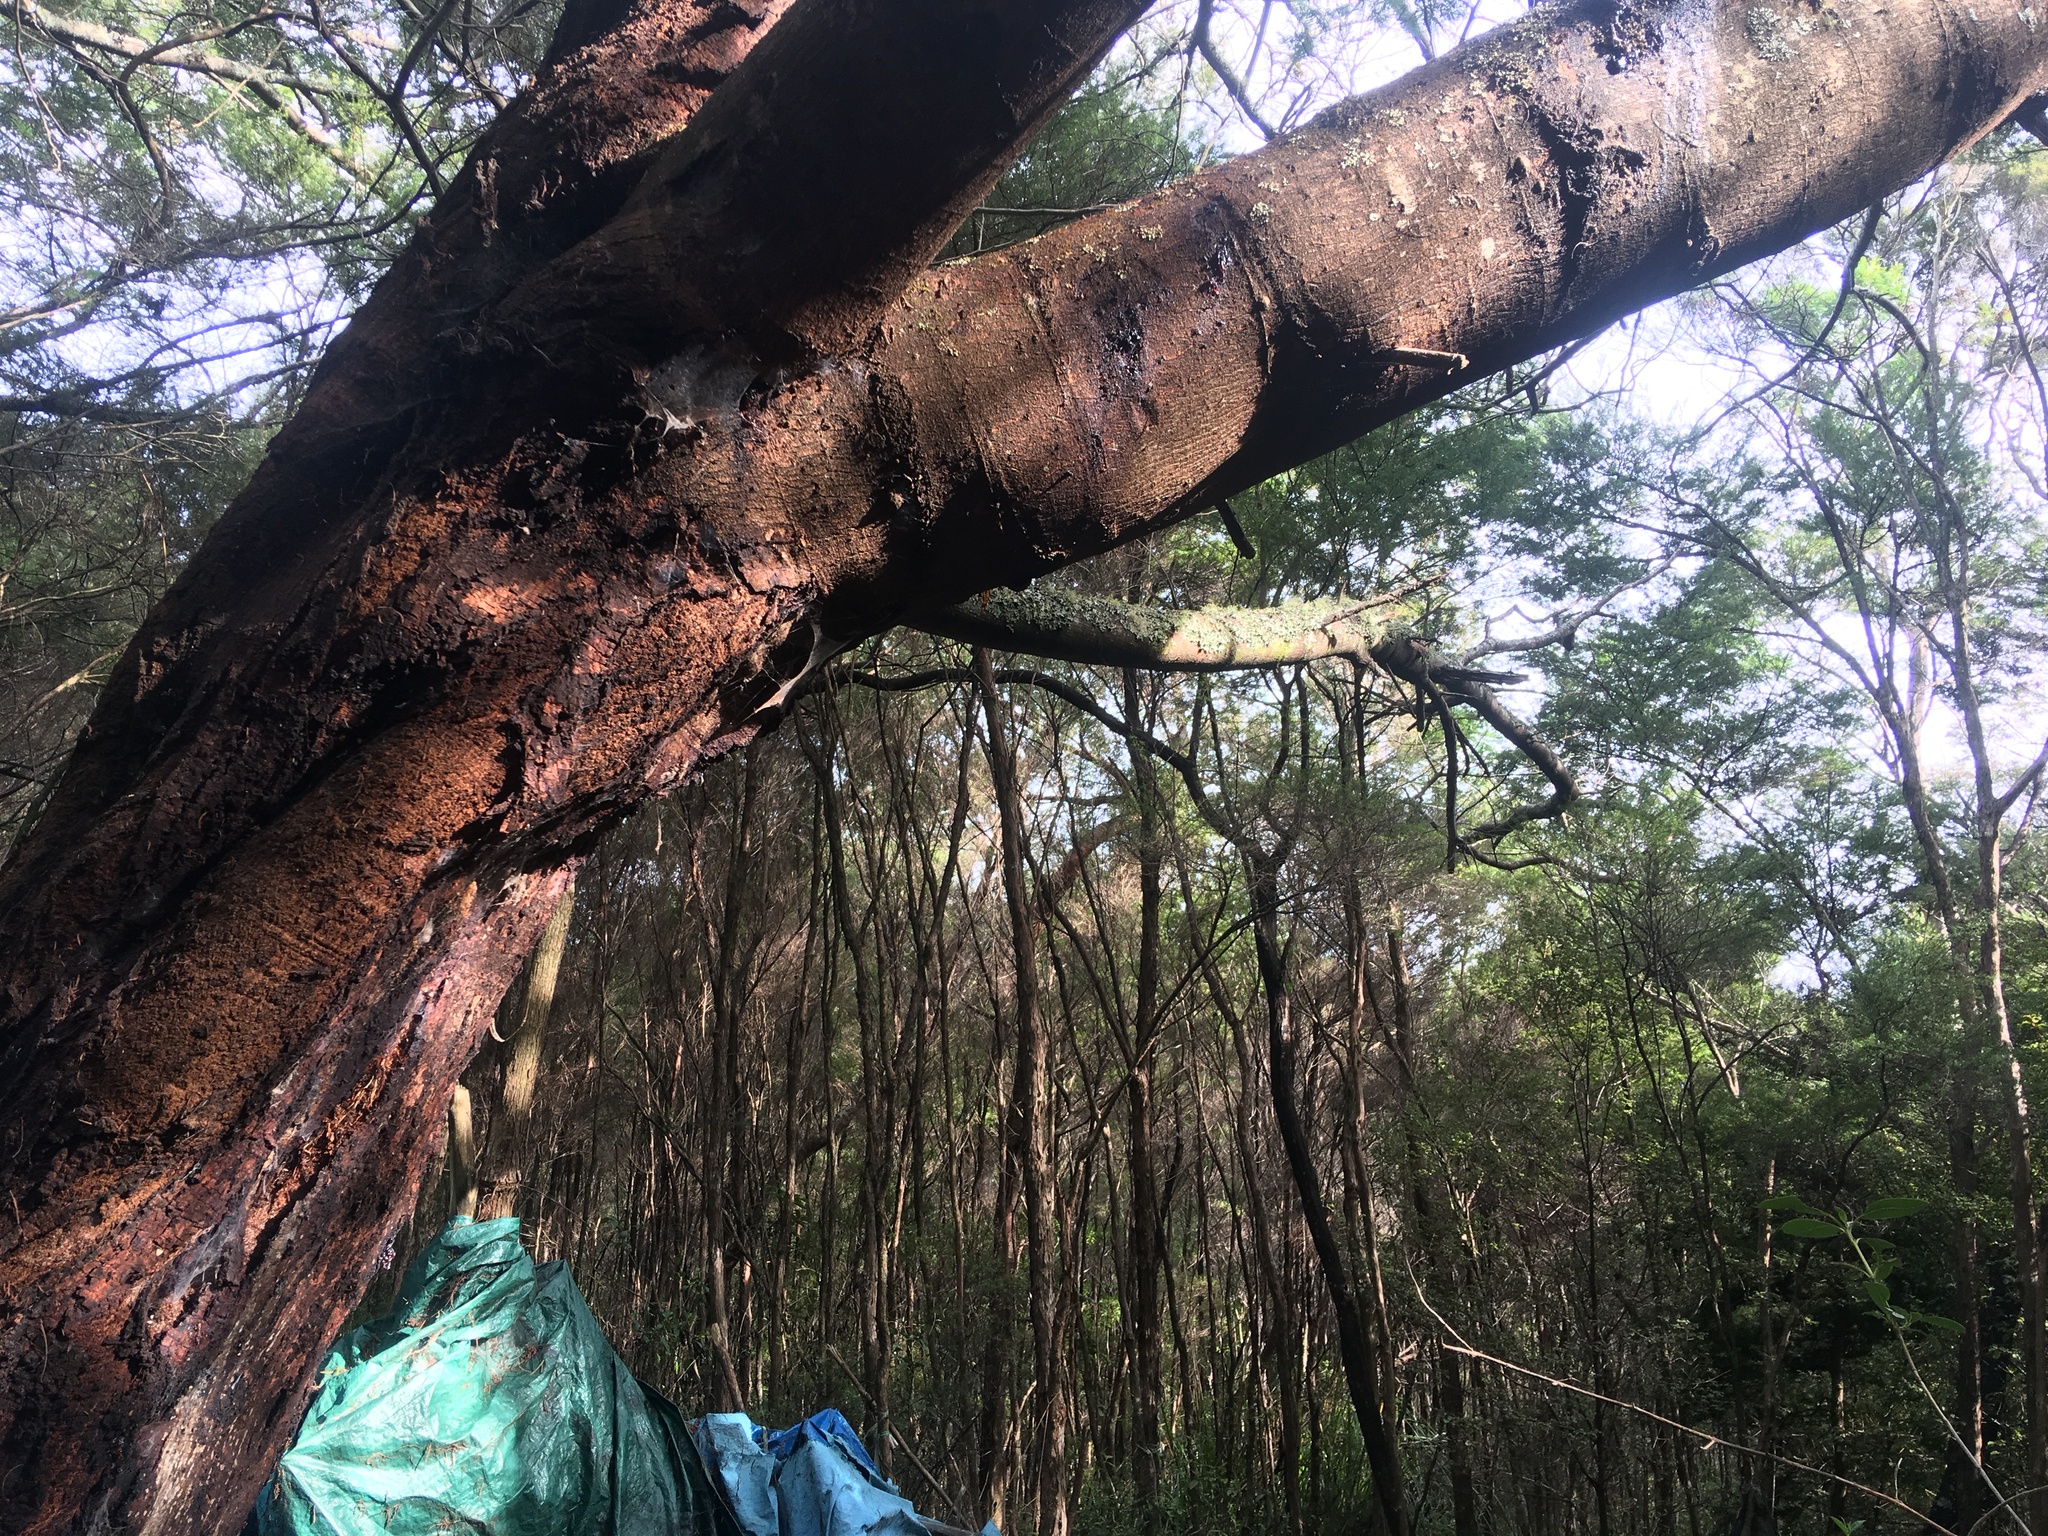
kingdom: Plantae
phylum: Tracheophyta
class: Magnoliopsida
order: Fabales
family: Fabaceae
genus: Paraserianthes
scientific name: Paraserianthes lophantha
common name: Plume albizia
